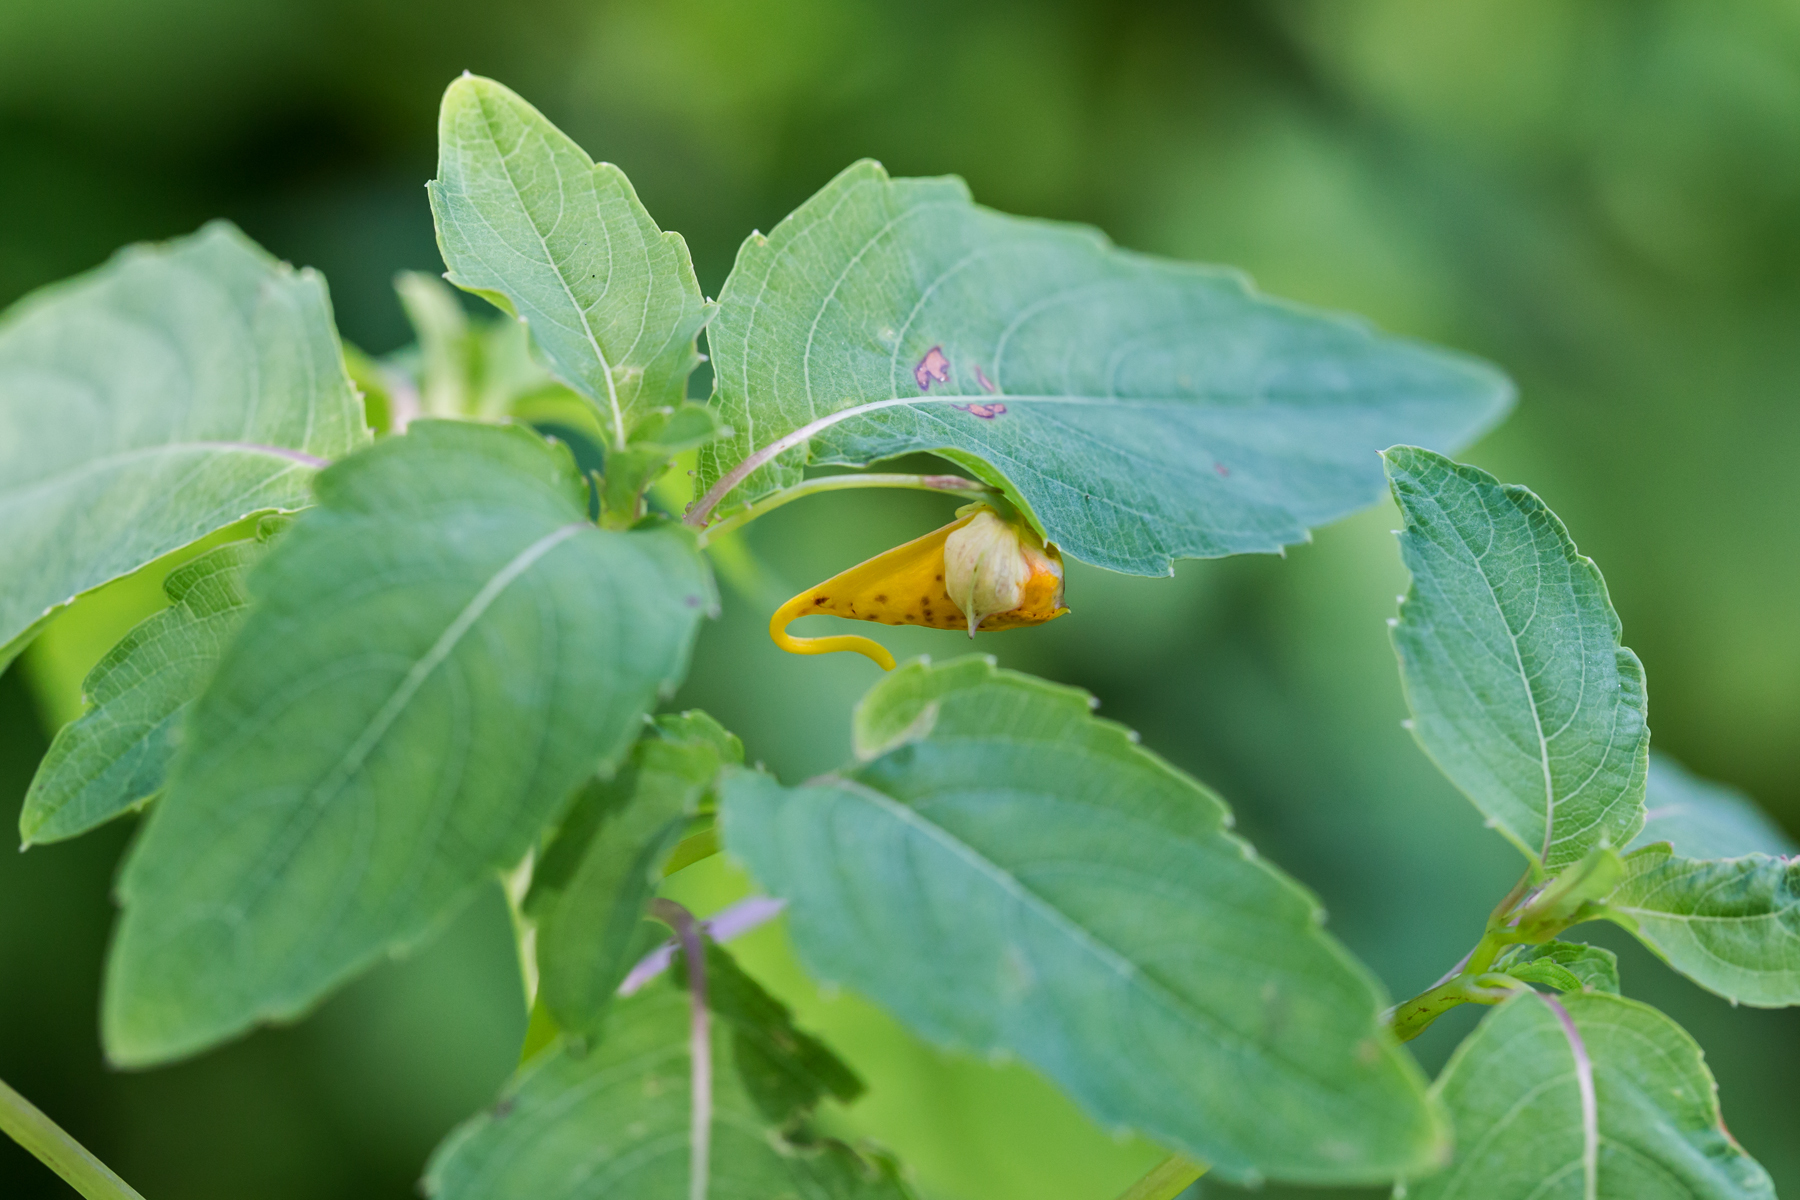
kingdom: Plantae
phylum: Tracheophyta
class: Magnoliopsida
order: Ericales
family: Balsaminaceae
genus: Impatiens
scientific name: Impatiens capensis
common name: Orange balsam
